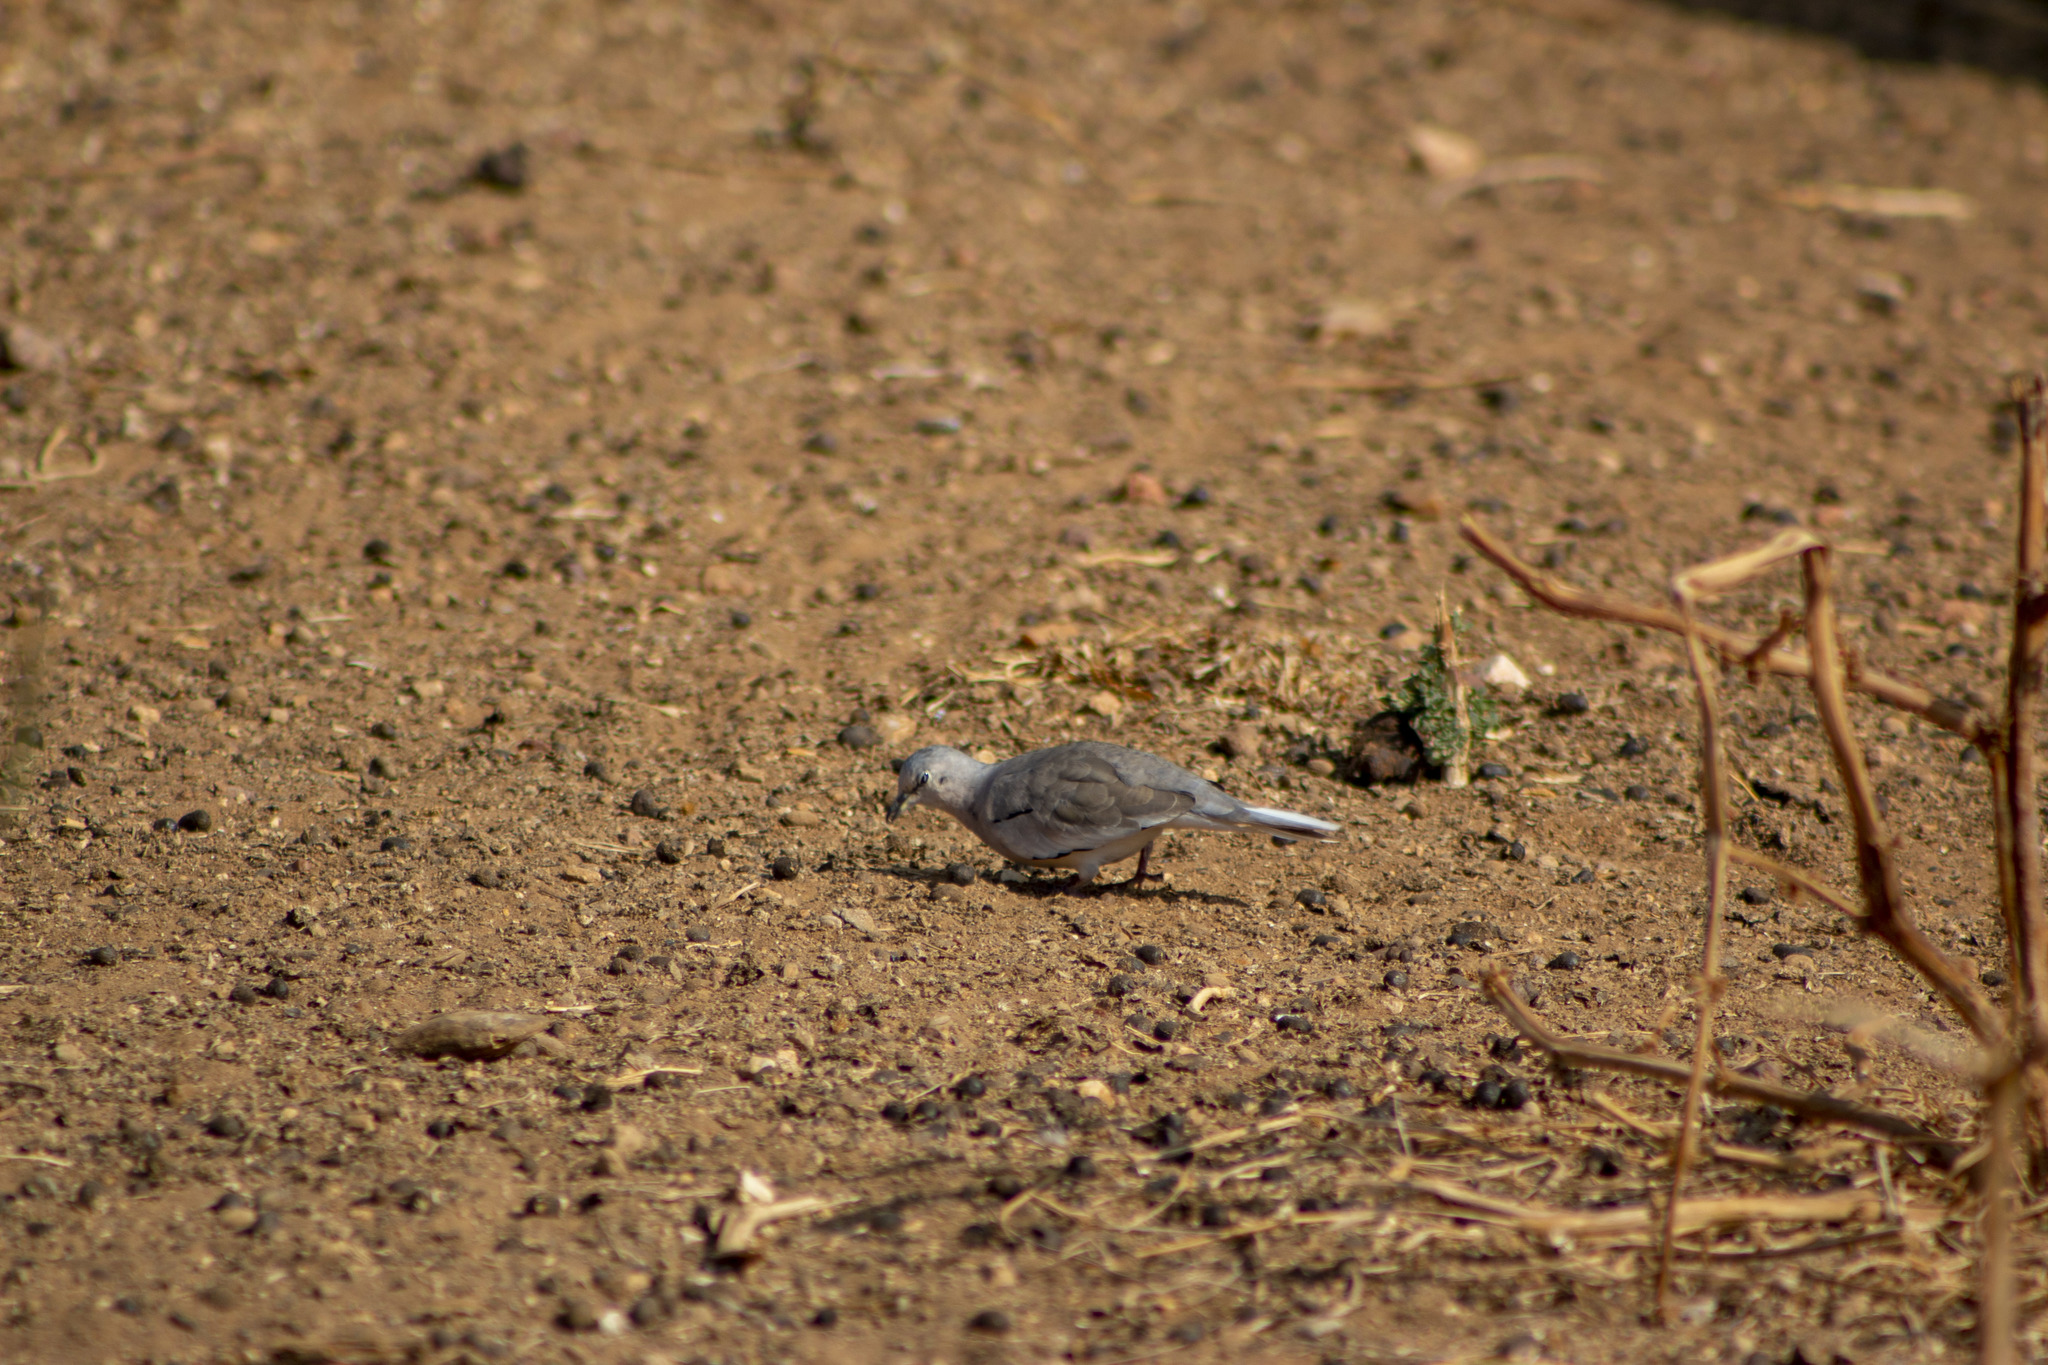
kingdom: Animalia
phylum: Chordata
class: Aves
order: Columbiformes
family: Columbidae
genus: Columbina
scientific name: Columbina picui
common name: Picui ground dove
